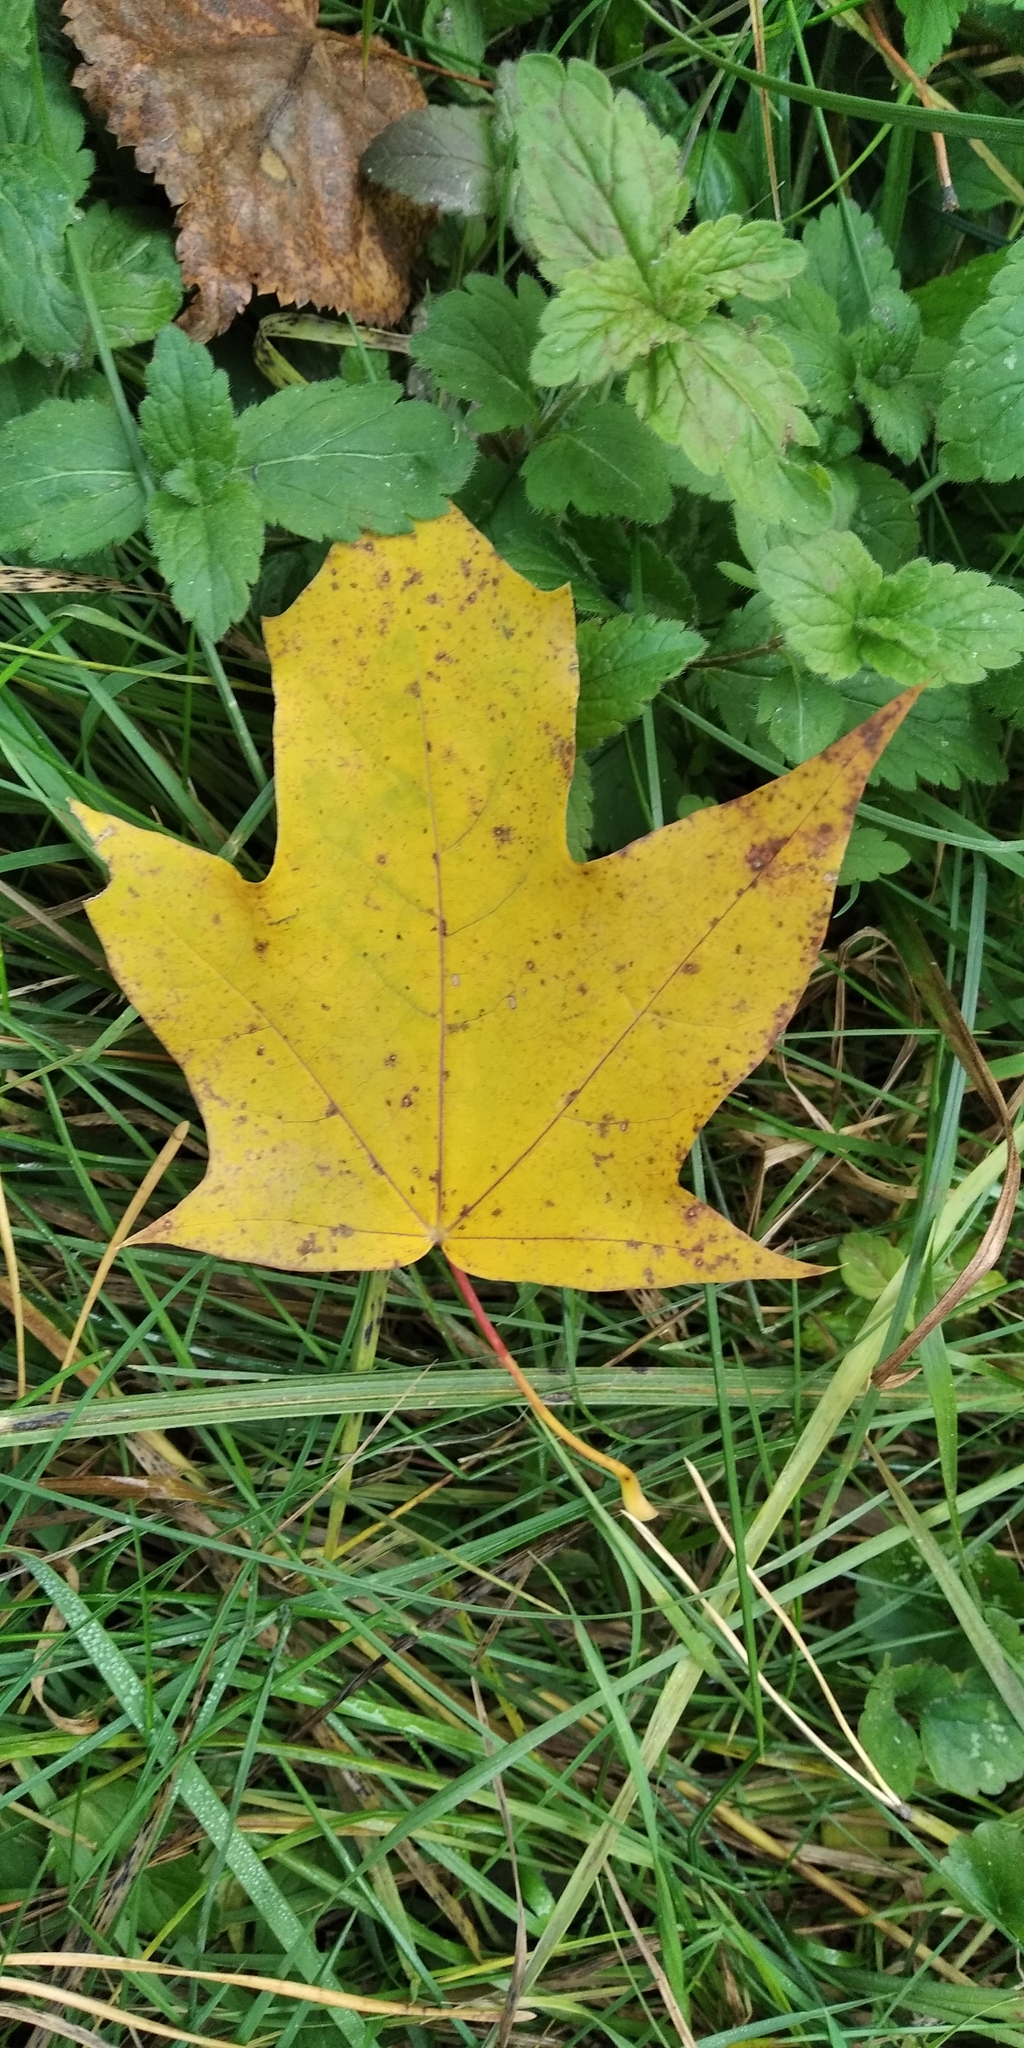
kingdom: Plantae
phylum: Tracheophyta
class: Magnoliopsida
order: Sapindales
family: Sapindaceae
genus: Acer
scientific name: Acer cappadocicum
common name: Cappadocian maple
